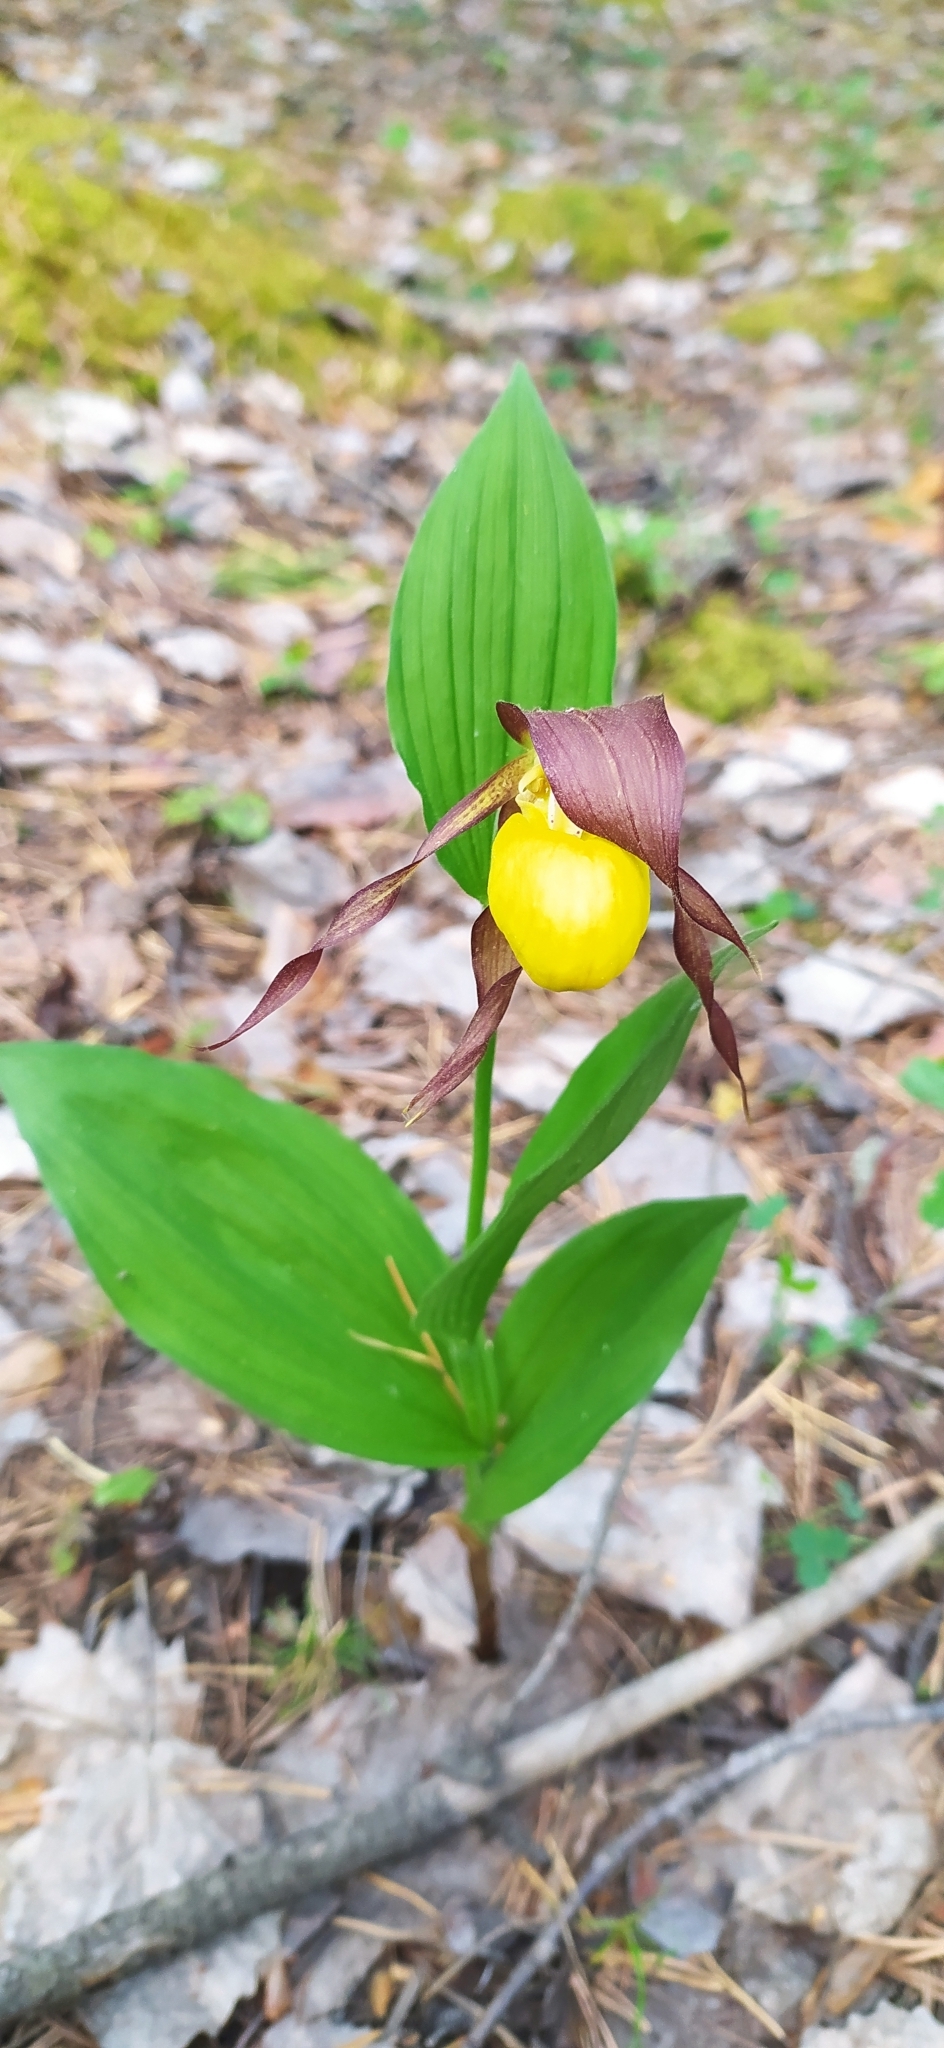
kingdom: Plantae
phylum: Tracheophyta
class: Liliopsida
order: Asparagales
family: Orchidaceae
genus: Cypripedium
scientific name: Cypripedium calceolus
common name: Lady's-slipper
